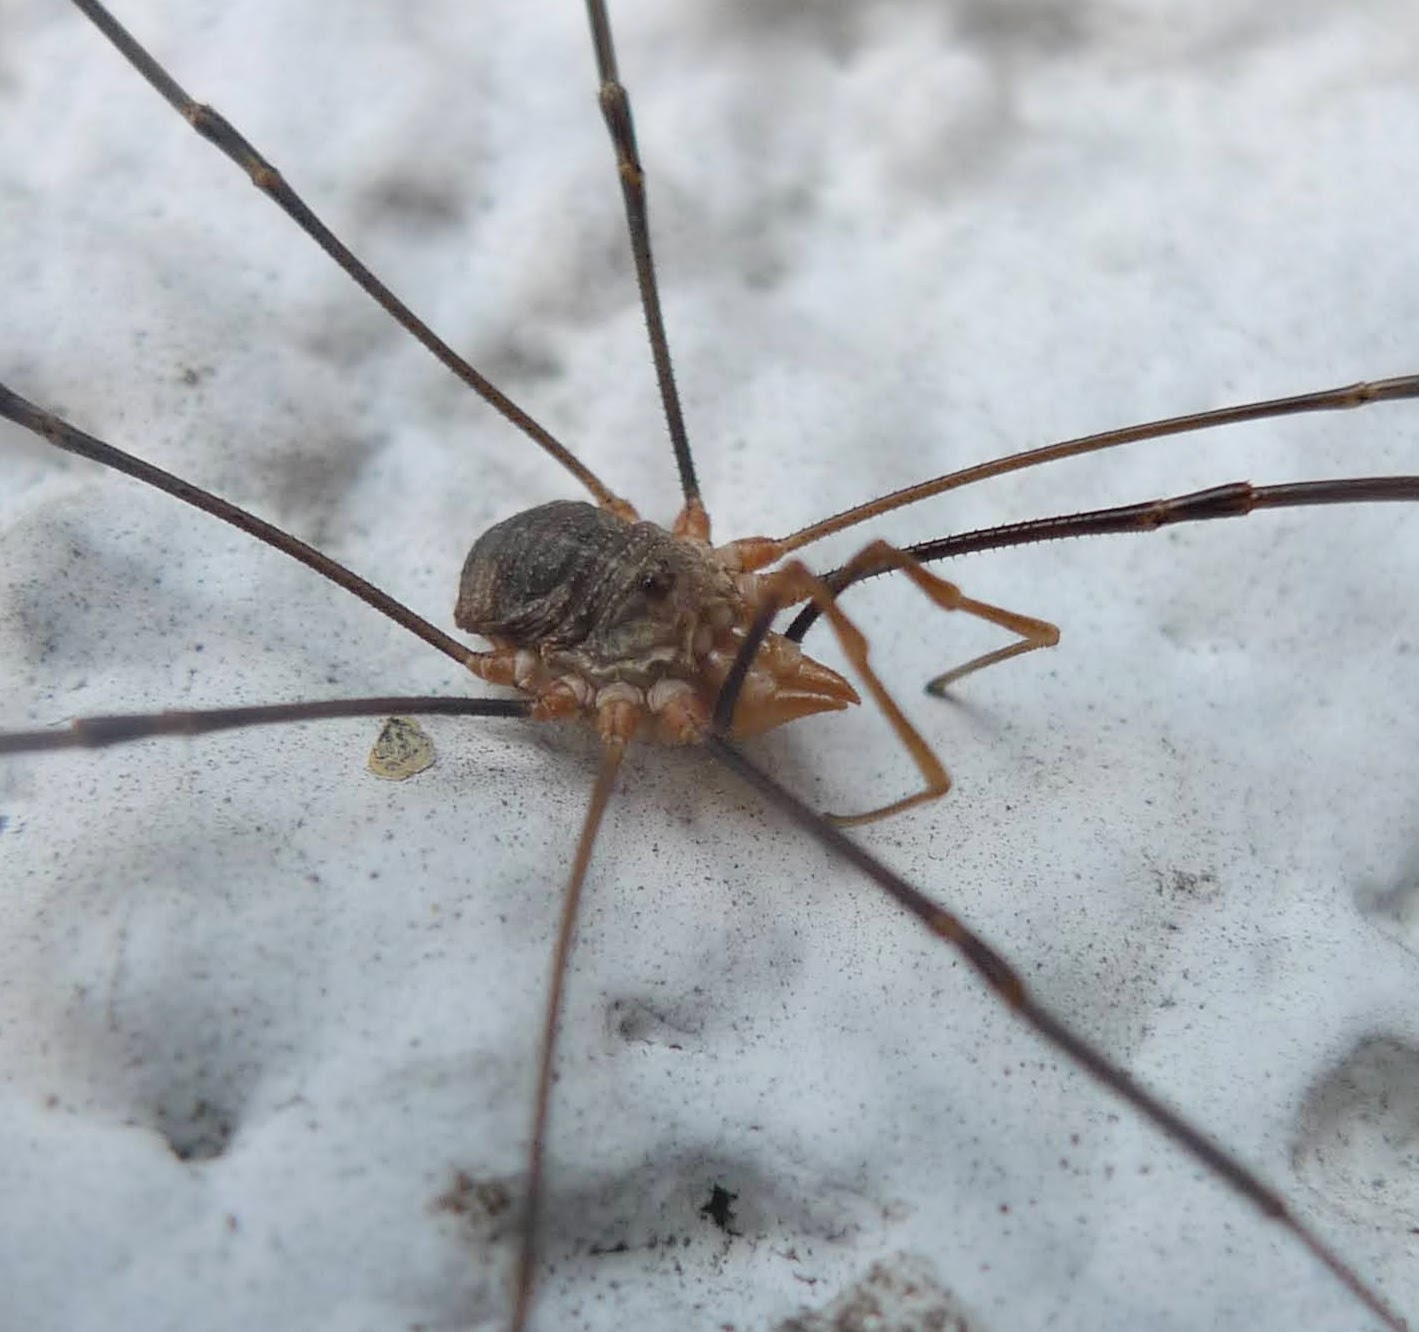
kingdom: Animalia
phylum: Arthropoda
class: Arachnida
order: Opiliones
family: Phalangiidae
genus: Phalangium
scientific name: Phalangium opilio
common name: Daddy longleg
